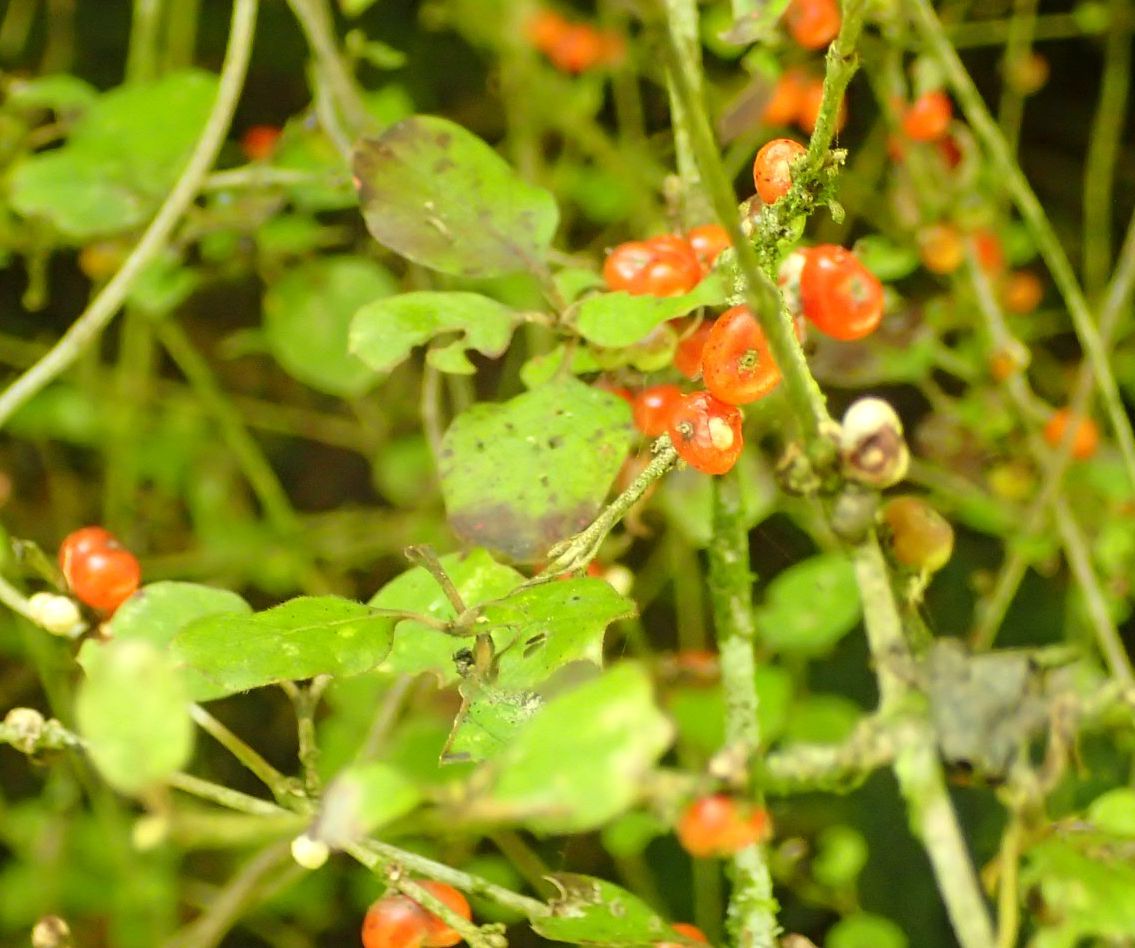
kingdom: Plantae
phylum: Tracheophyta
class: Magnoliopsida
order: Gentianales
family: Rubiaceae
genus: Coprosma
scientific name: Coprosma rotundifolia
